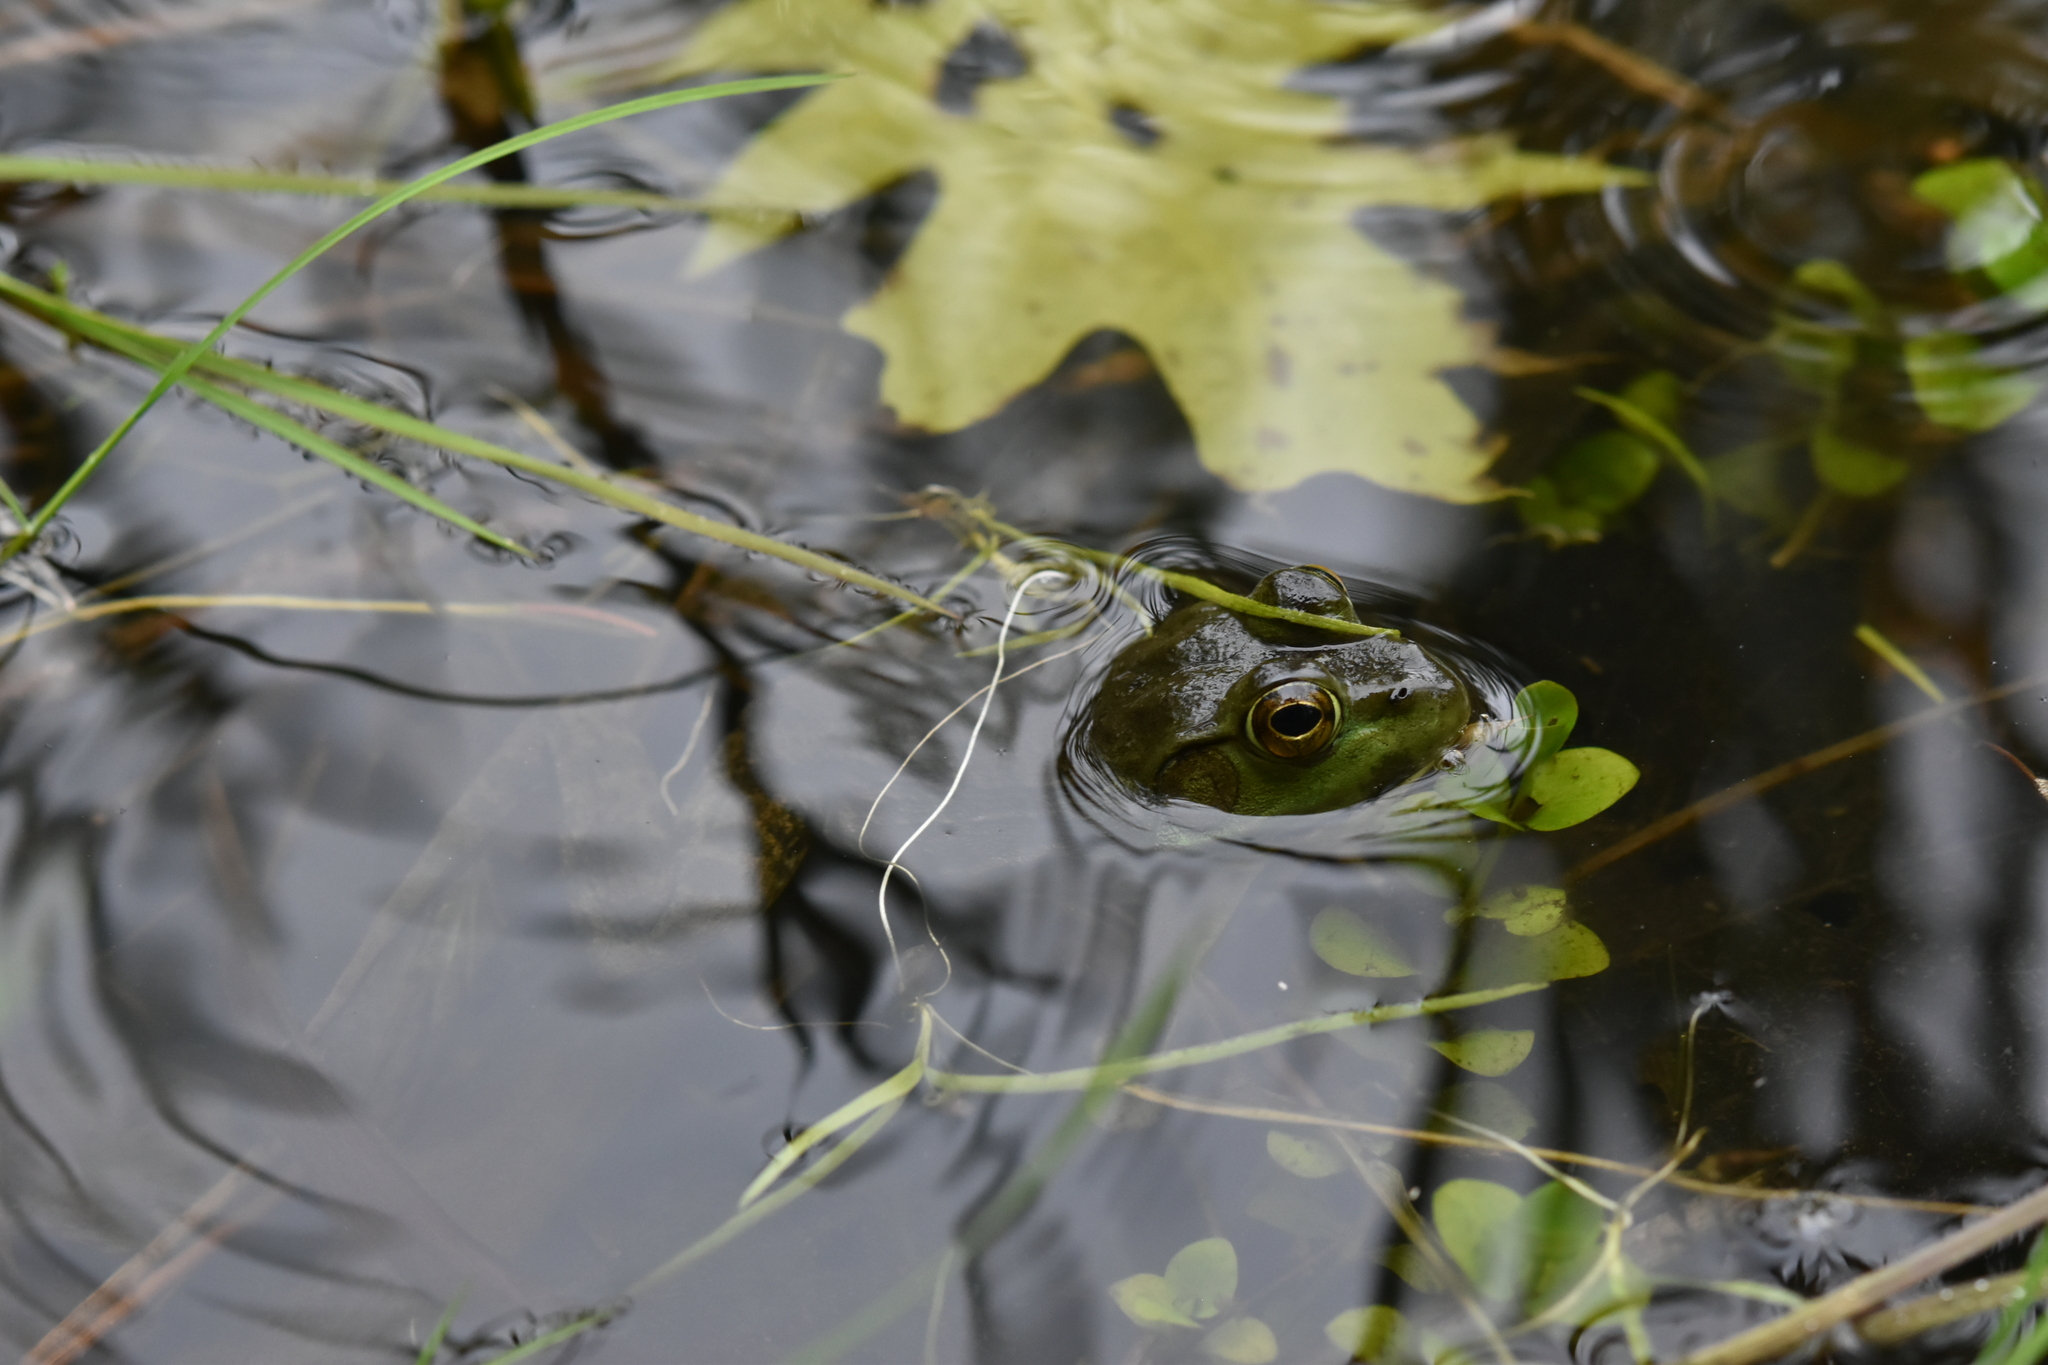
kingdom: Animalia
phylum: Chordata
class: Amphibia
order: Anura
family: Ranidae
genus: Lithobates
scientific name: Lithobates catesbeianus
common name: American bullfrog
